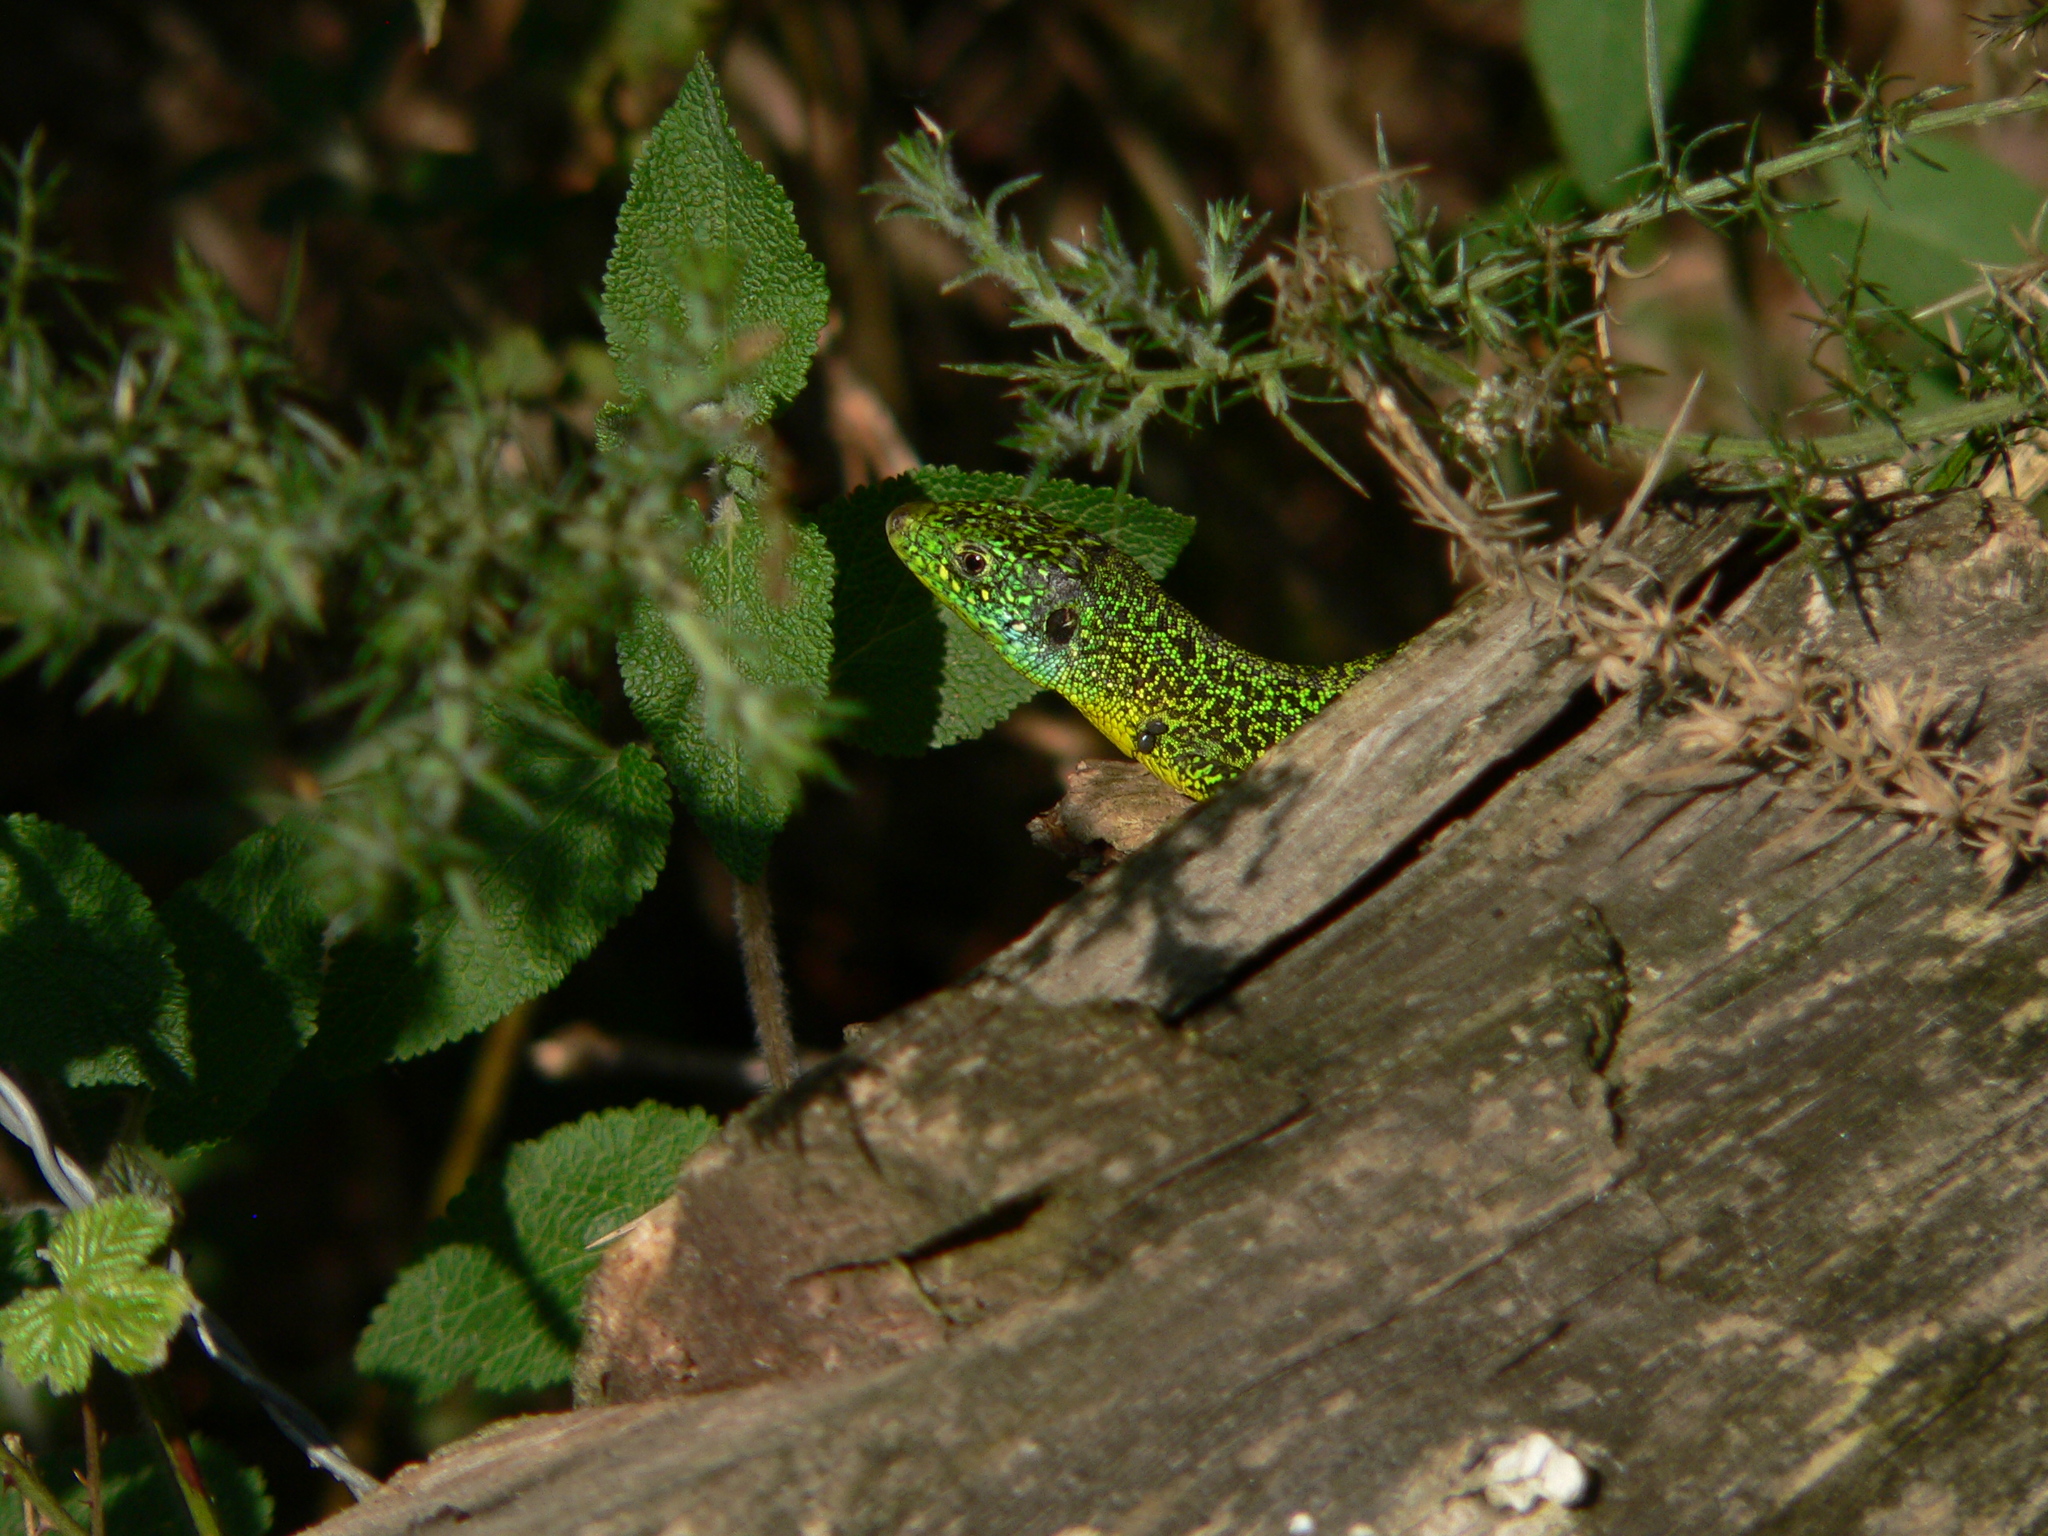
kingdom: Animalia
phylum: Chordata
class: Squamata
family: Lacertidae
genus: Lacerta
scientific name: Lacerta bilineata
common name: Western green lizard
